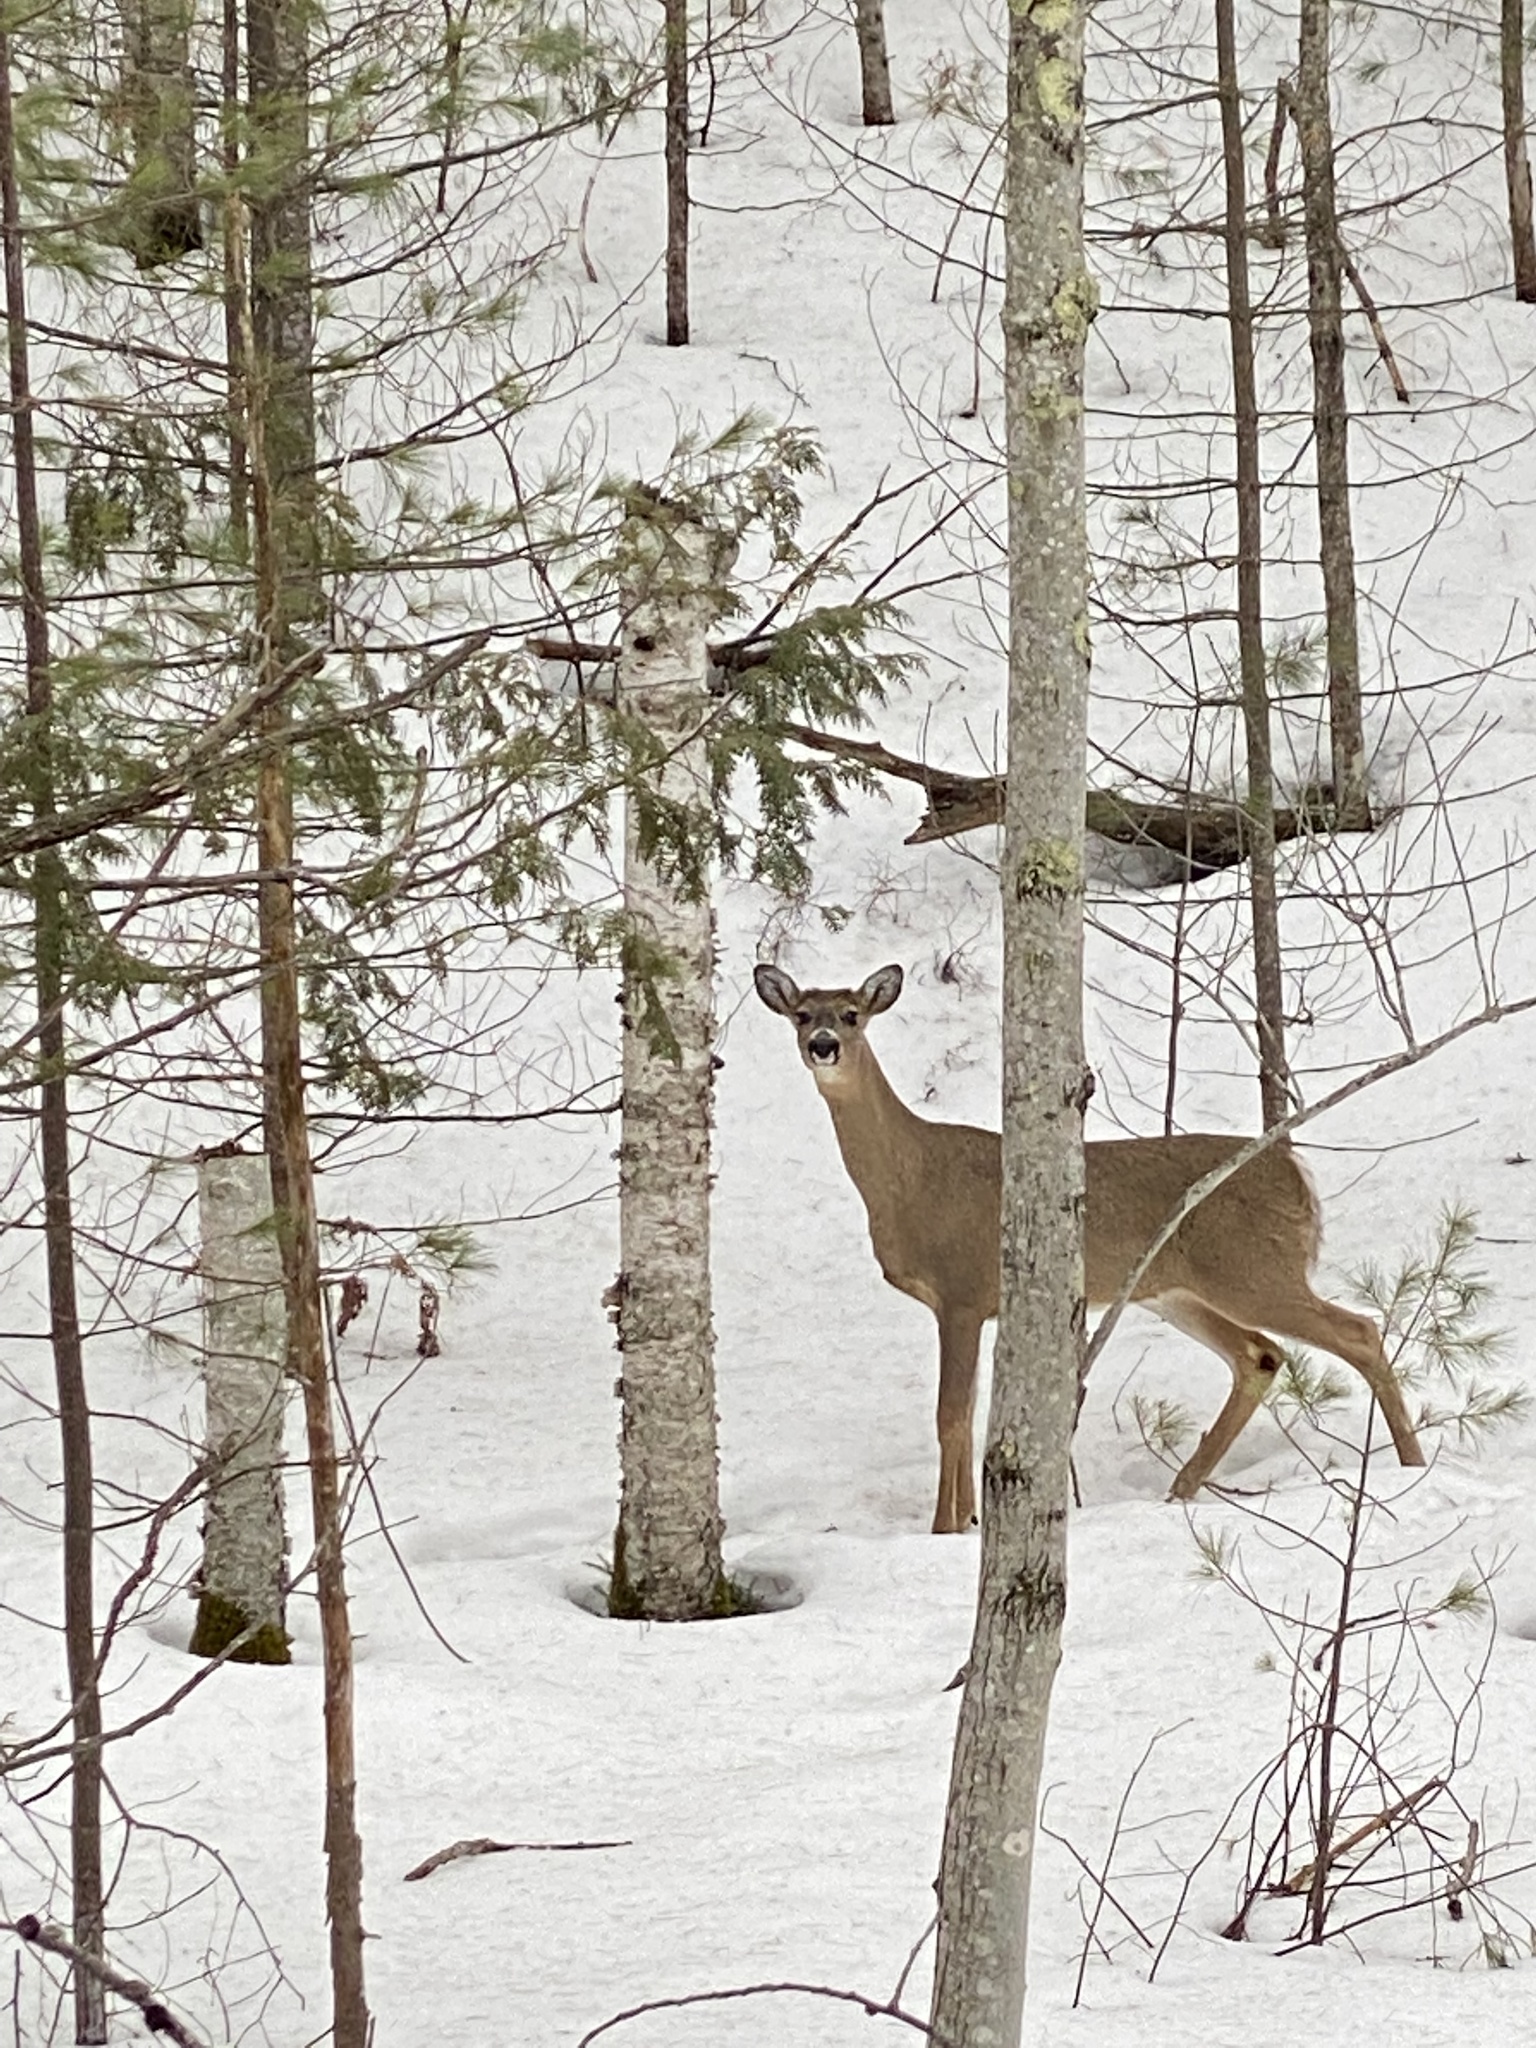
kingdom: Animalia
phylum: Chordata
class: Mammalia
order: Artiodactyla
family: Cervidae
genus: Odocoileus
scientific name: Odocoileus virginianus
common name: White-tailed deer
